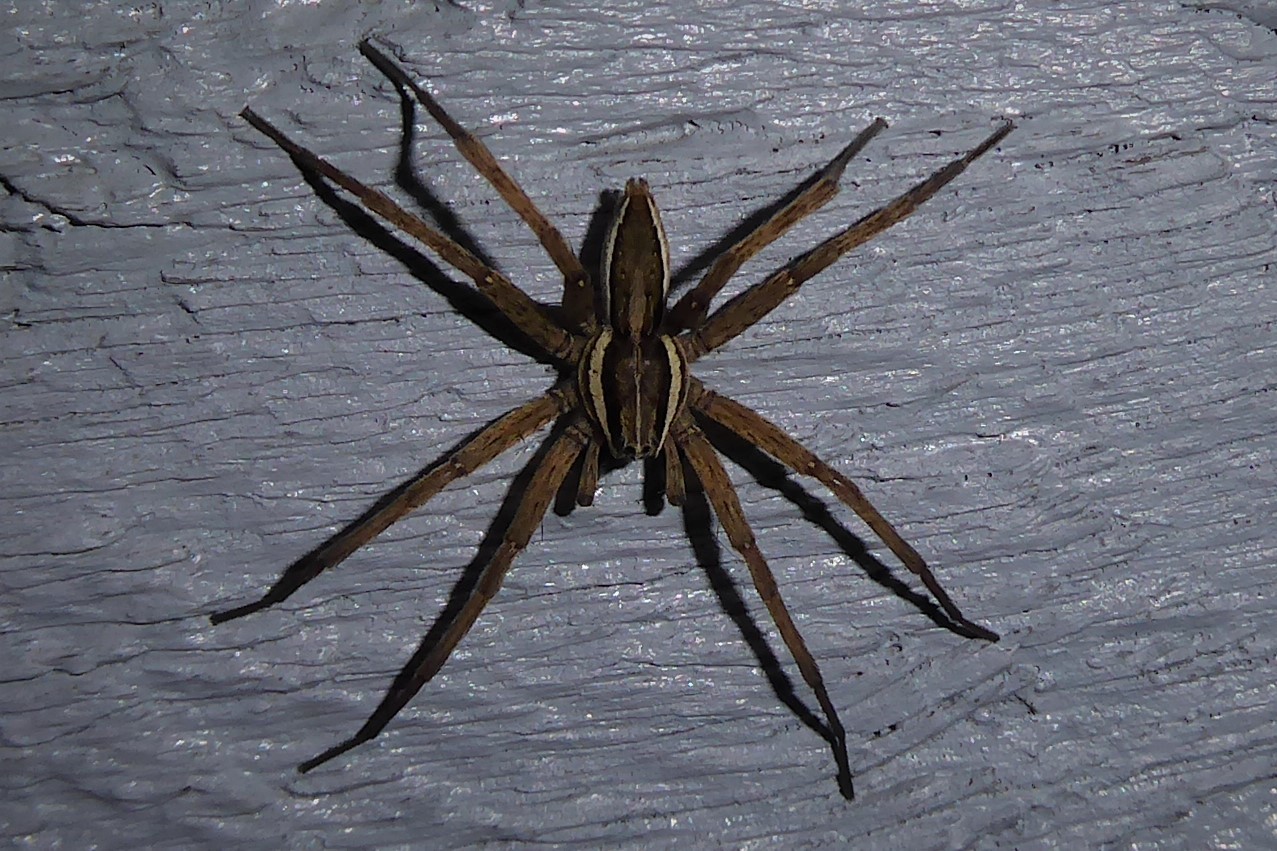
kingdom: Animalia
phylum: Arthropoda
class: Arachnida
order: Araneae
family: Pisauridae
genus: Dolomedes
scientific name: Dolomedes minor
